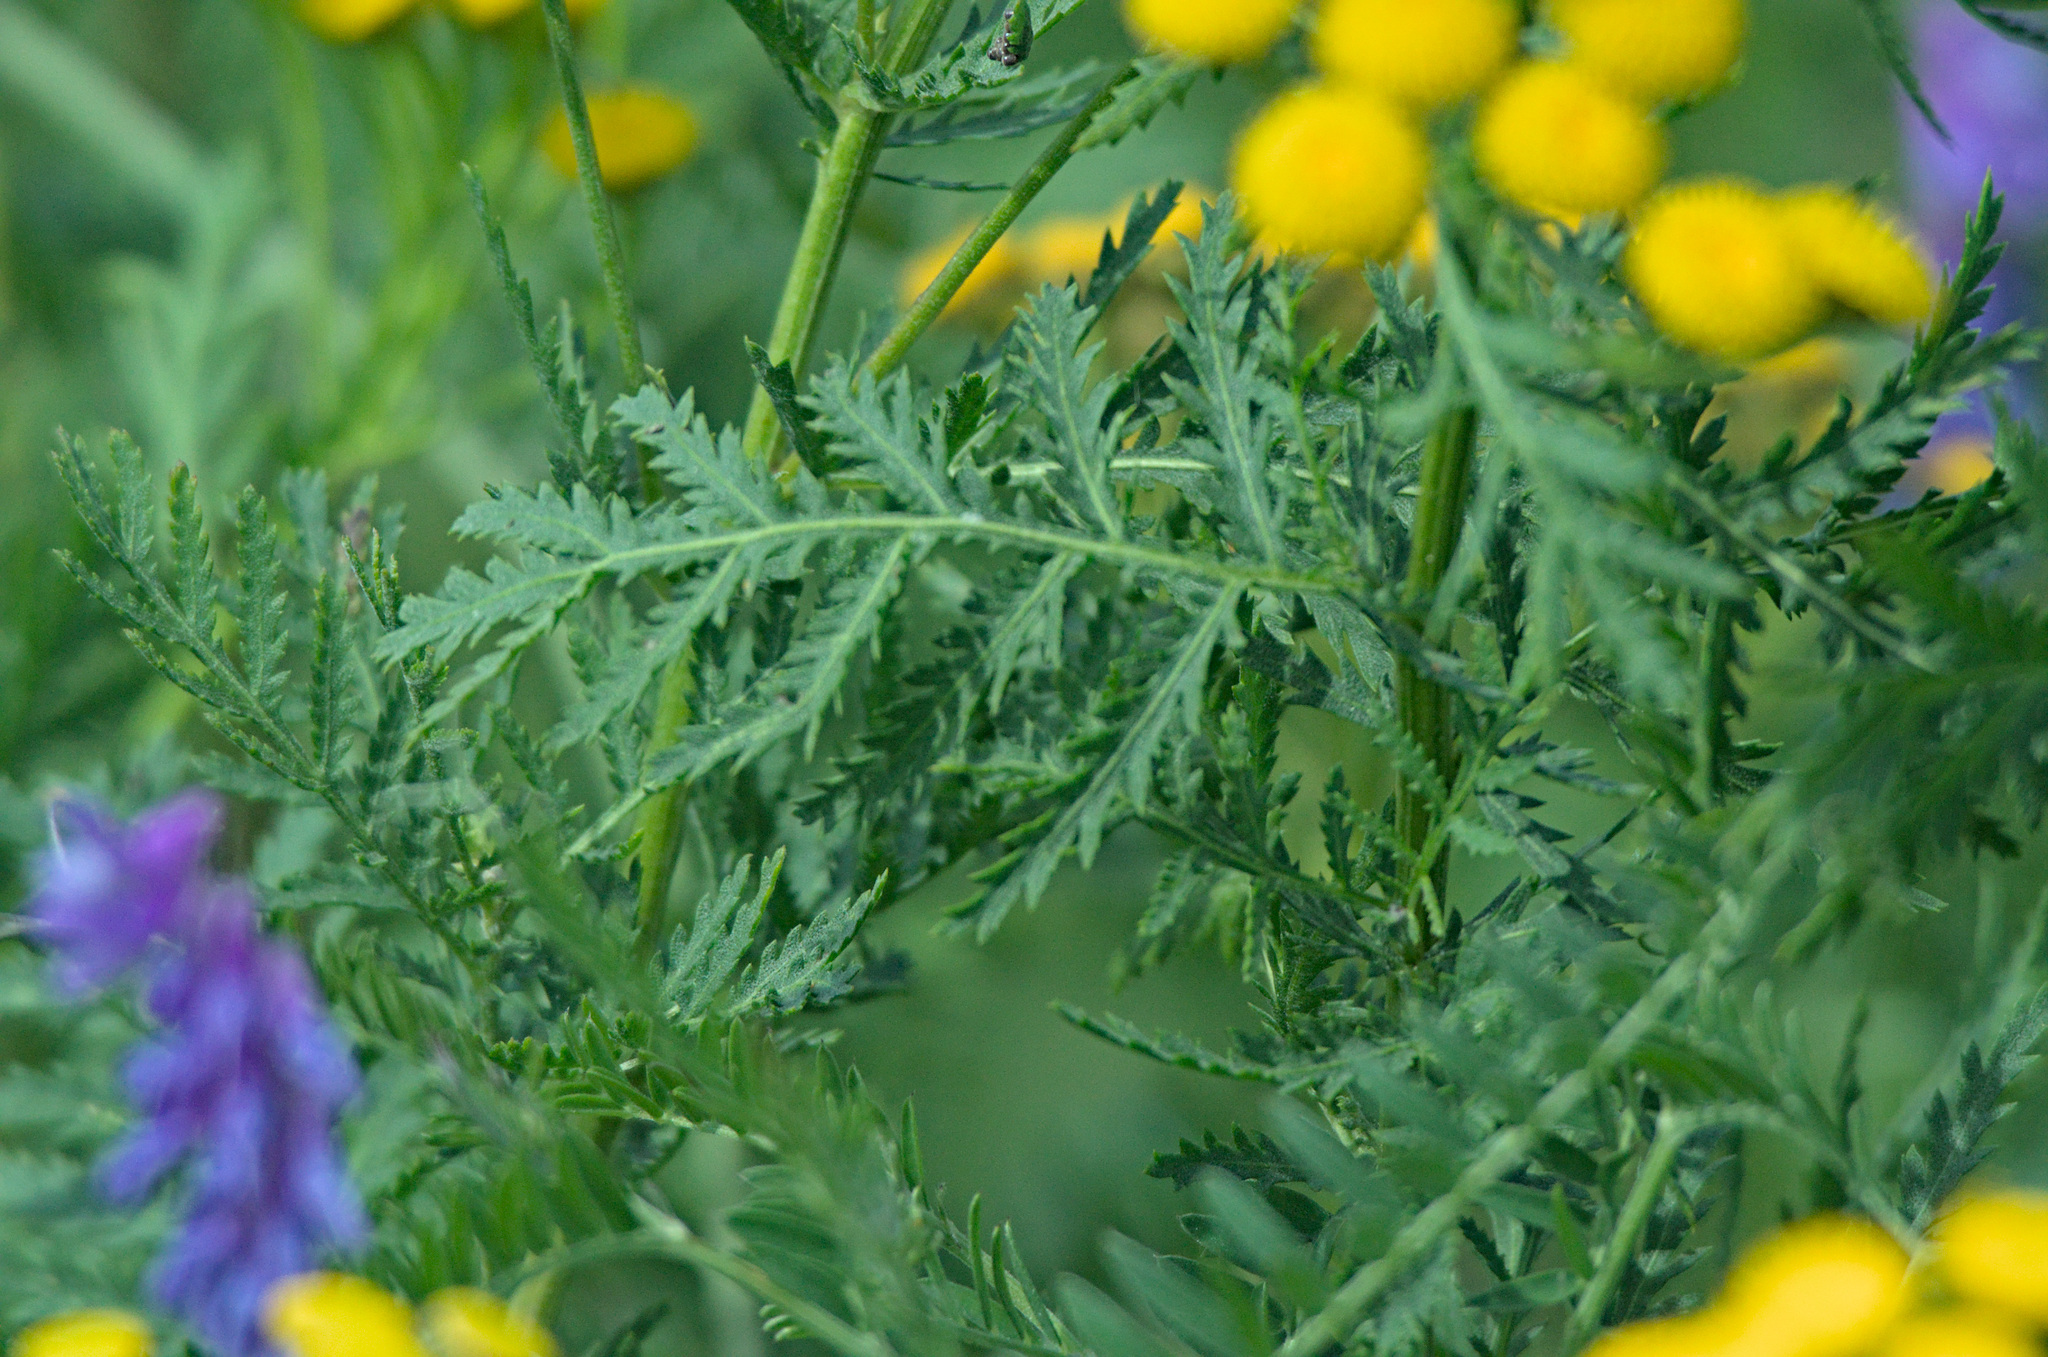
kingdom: Plantae
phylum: Tracheophyta
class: Magnoliopsida
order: Asterales
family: Asteraceae
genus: Tanacetum
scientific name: Tanacetum vulgare
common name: Common tansy
